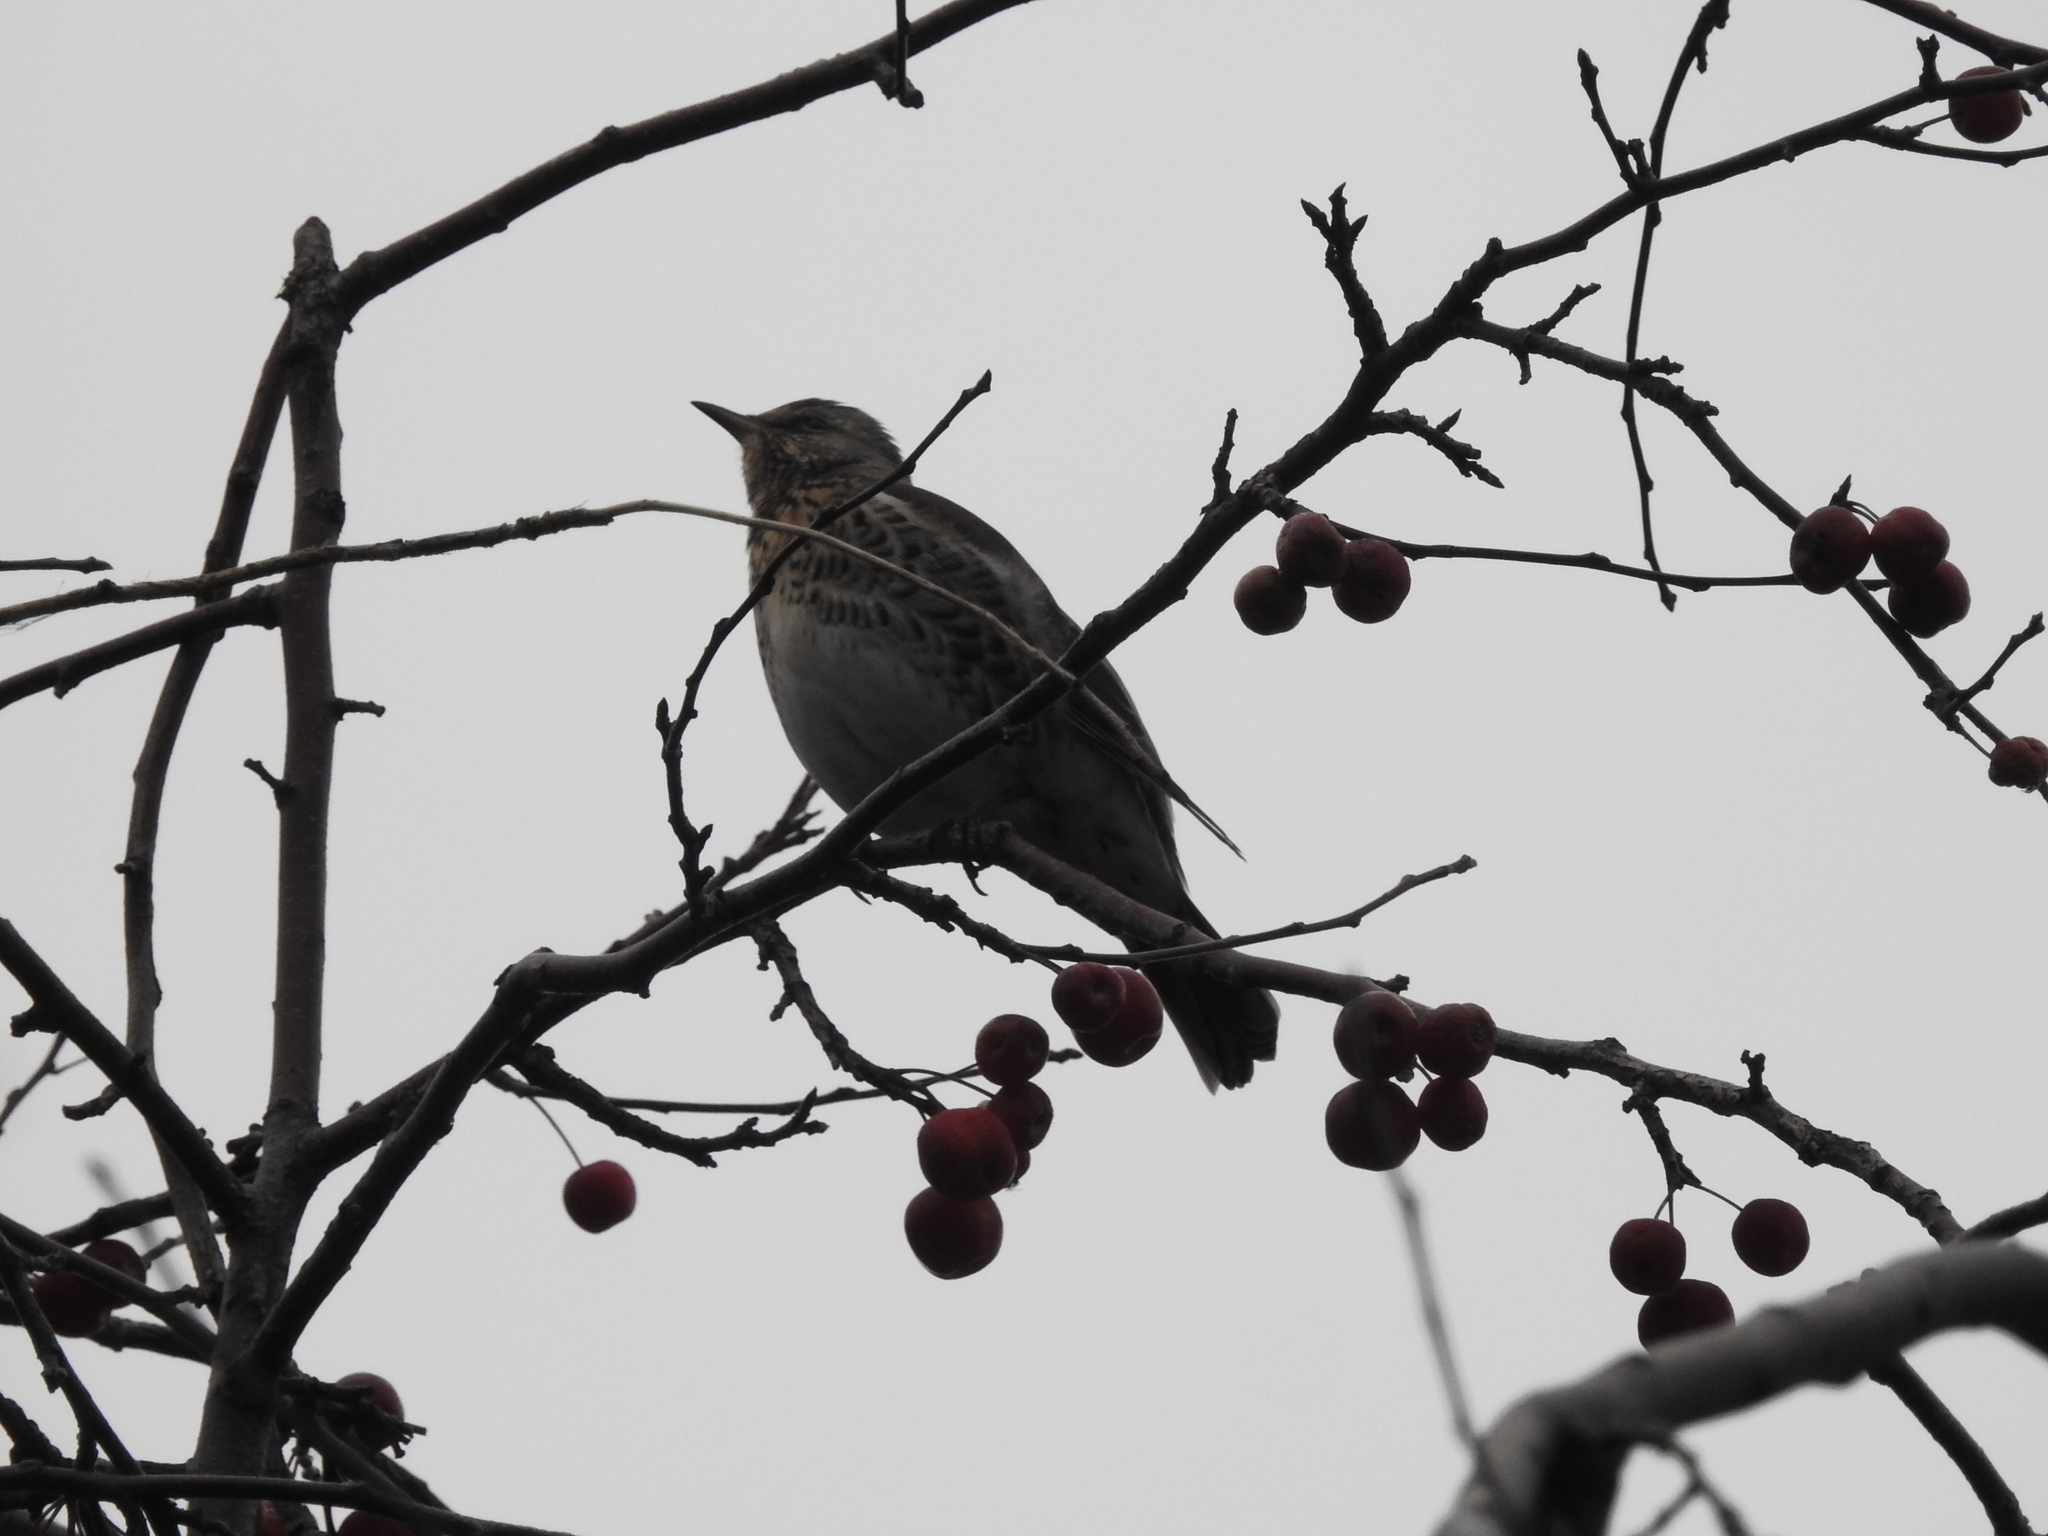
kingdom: Animalia
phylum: Chordata
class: Aves
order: Passeriformes
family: Turdidae
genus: Turdus
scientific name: Turdus pilaris
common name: Fieldfare
